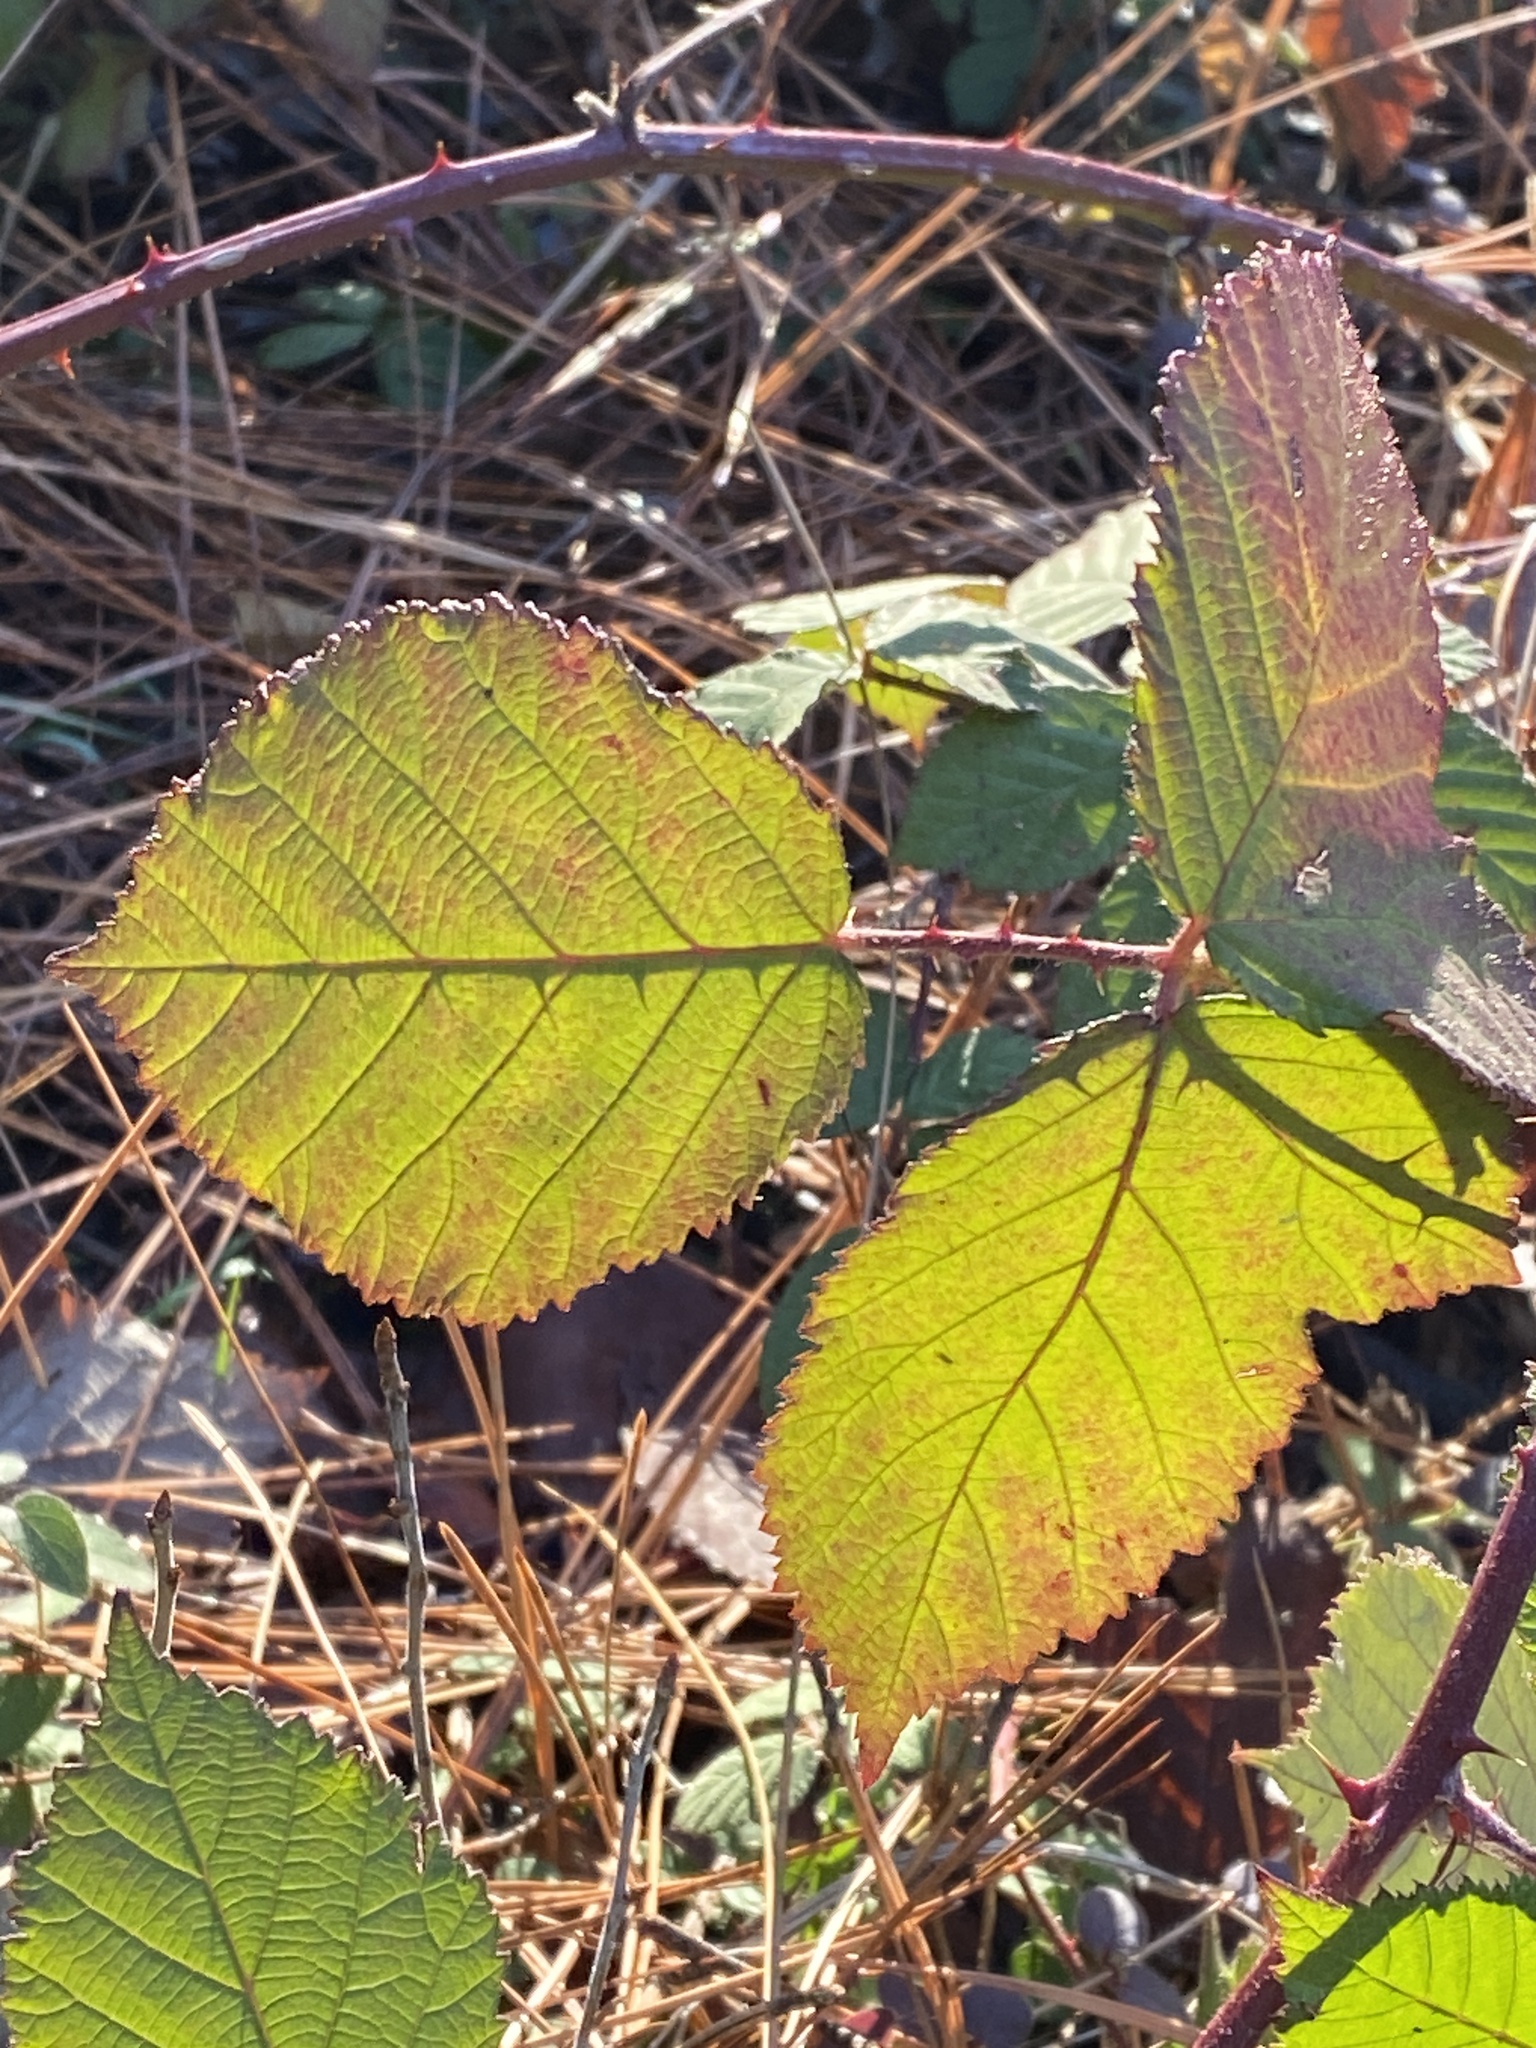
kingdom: Plantae
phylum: Tracheophyta
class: Magnoliopsida
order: Rosales
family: Rosaceae
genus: Rubus
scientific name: Rubus armeniacus
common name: Himalayan blackberry
